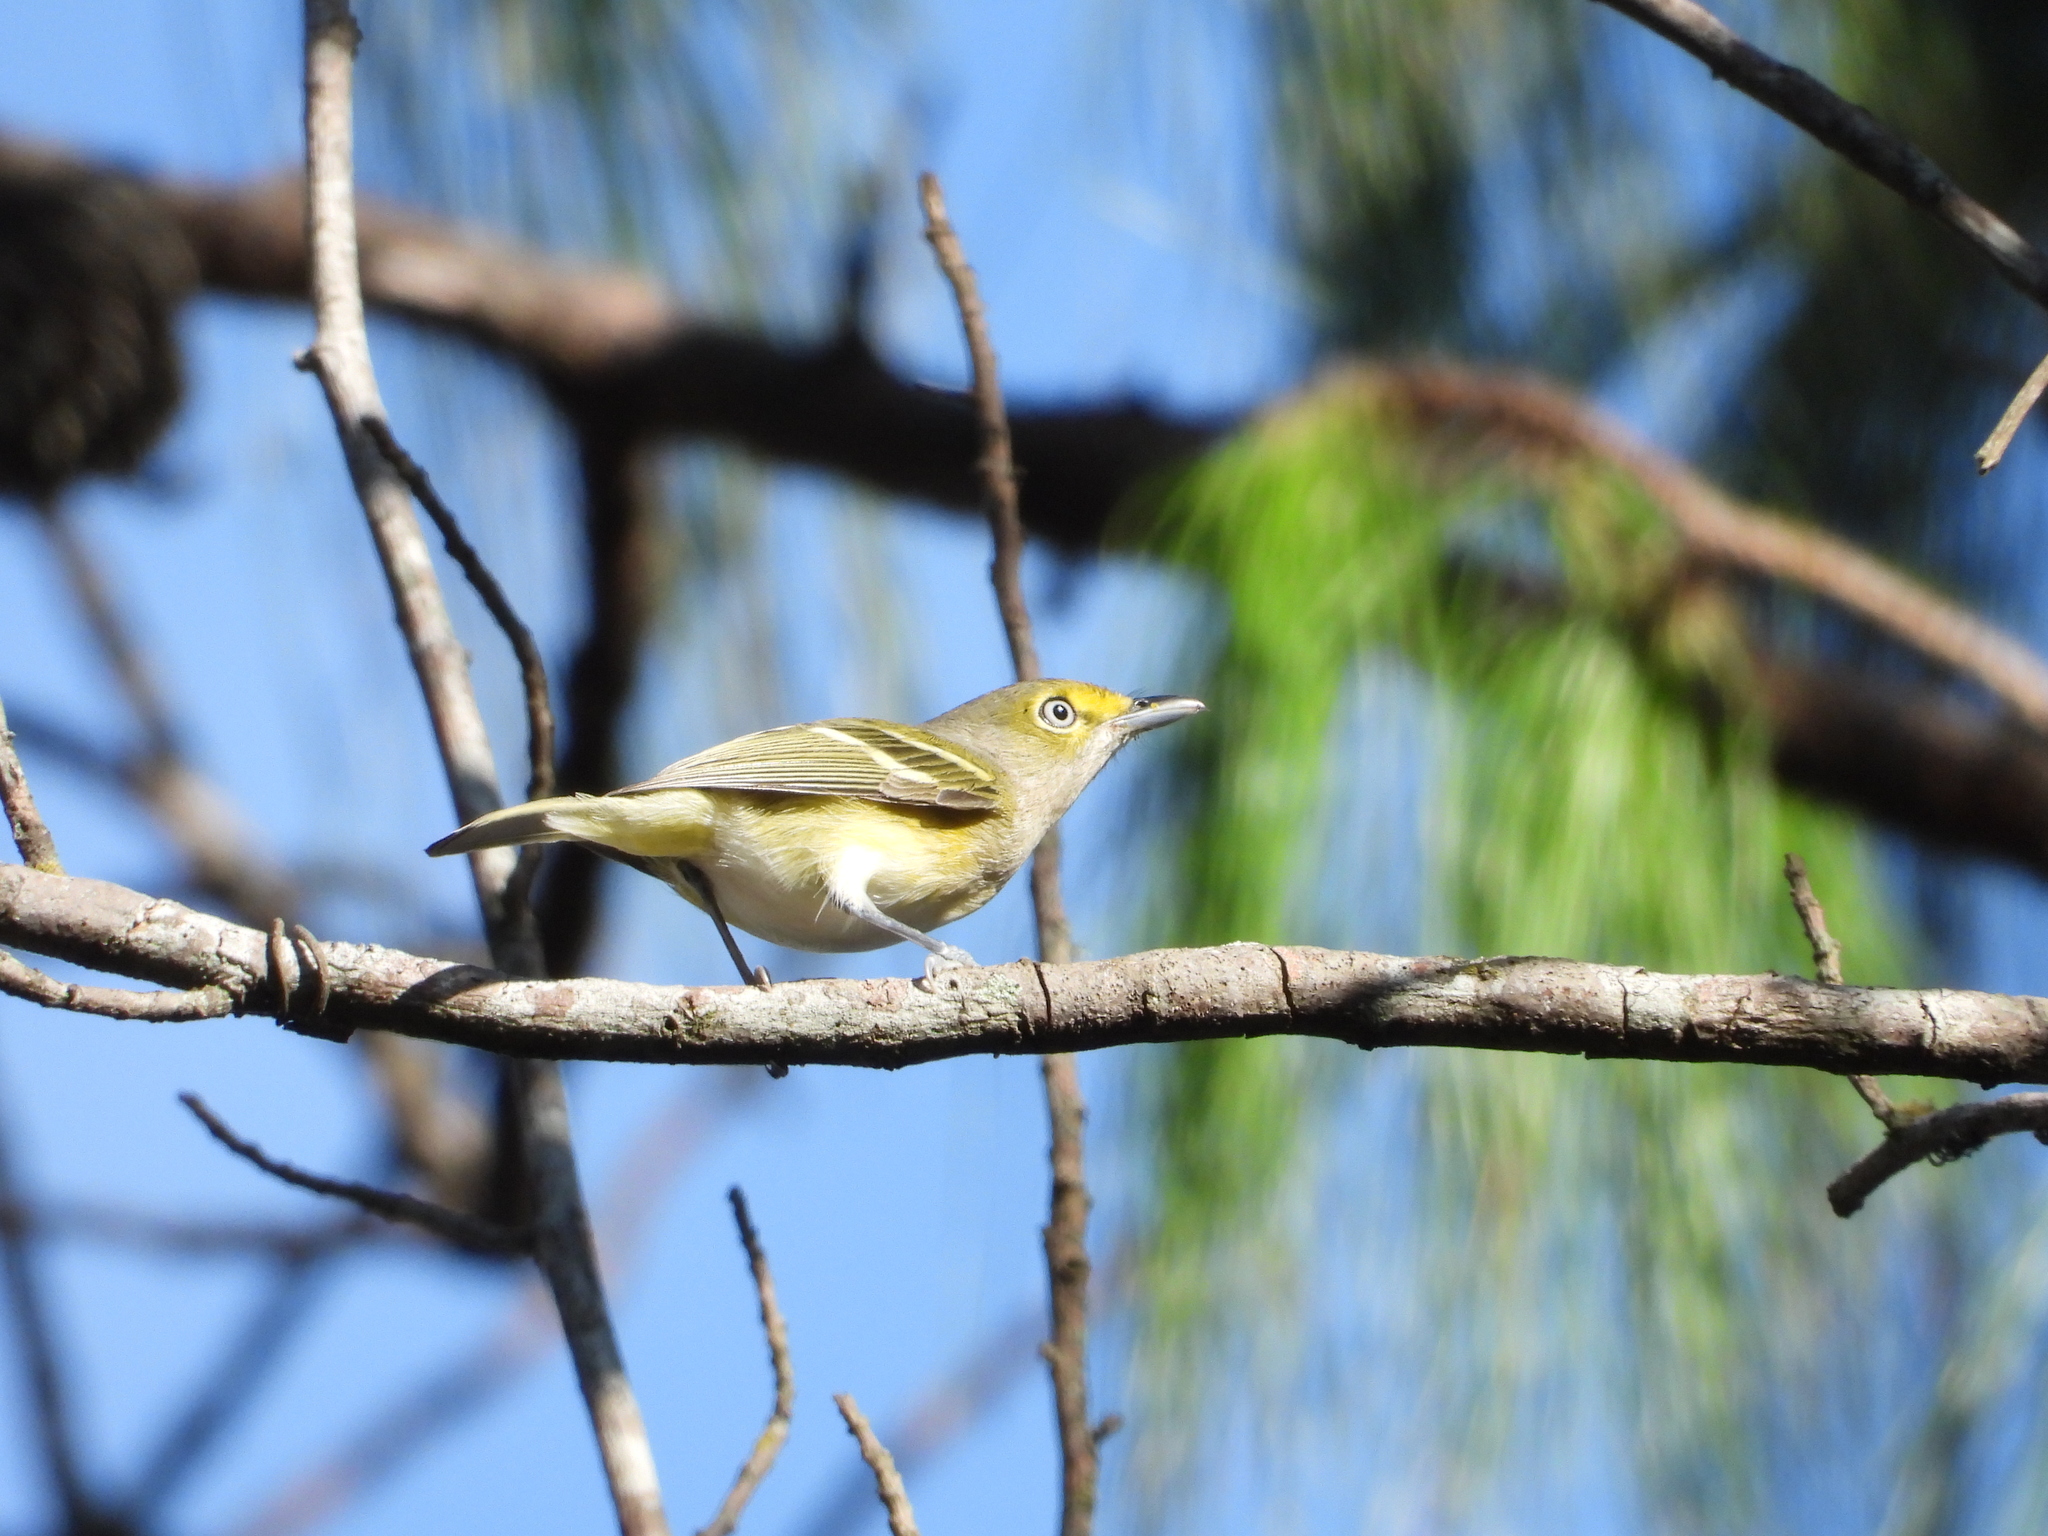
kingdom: Animalia
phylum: Chordata
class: Aves
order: Passeriformes
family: Vireonidae
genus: Vireo
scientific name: Vireo griseus
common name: White-eyed vireo
